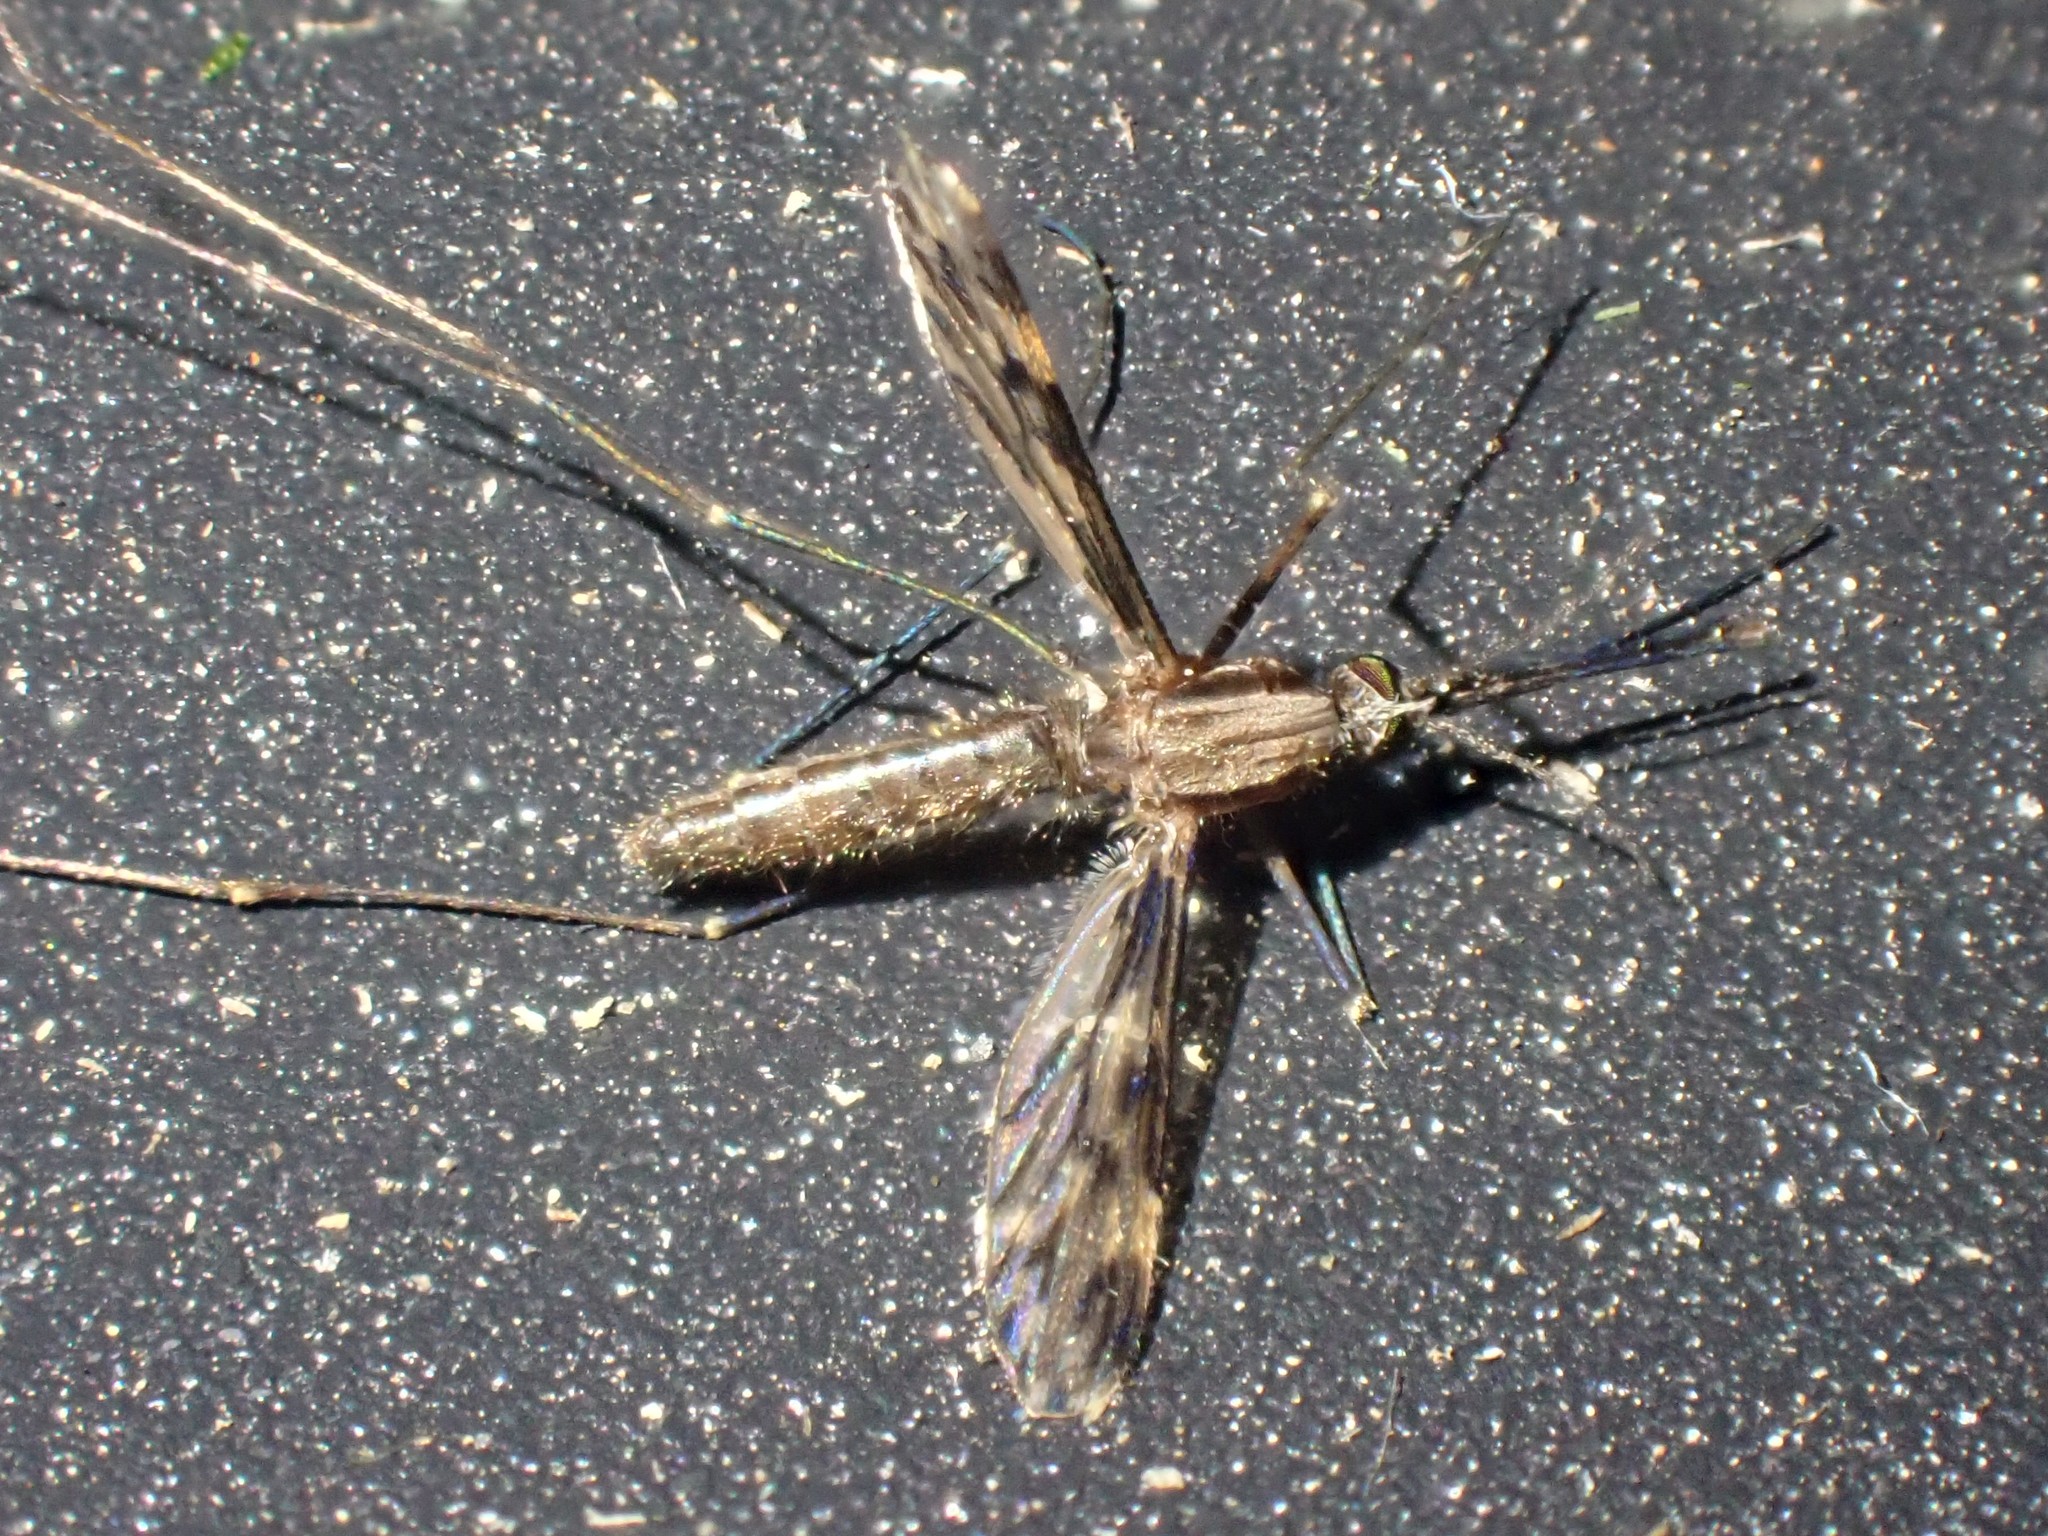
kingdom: Animalia
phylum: Arthropoda
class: Insecta
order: Diptera
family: Culicidae
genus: Anopheles
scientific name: Anopheles punctipennis
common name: Woodland malaria mosquito
